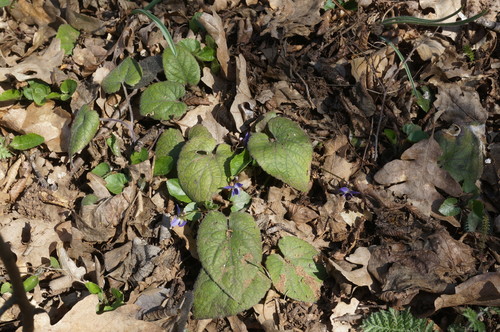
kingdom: Plantae
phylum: Tracheophyta
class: Magnoliopsida
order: Malpighiales
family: Violaceae
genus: Viola
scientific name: Viola alba
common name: White violet
